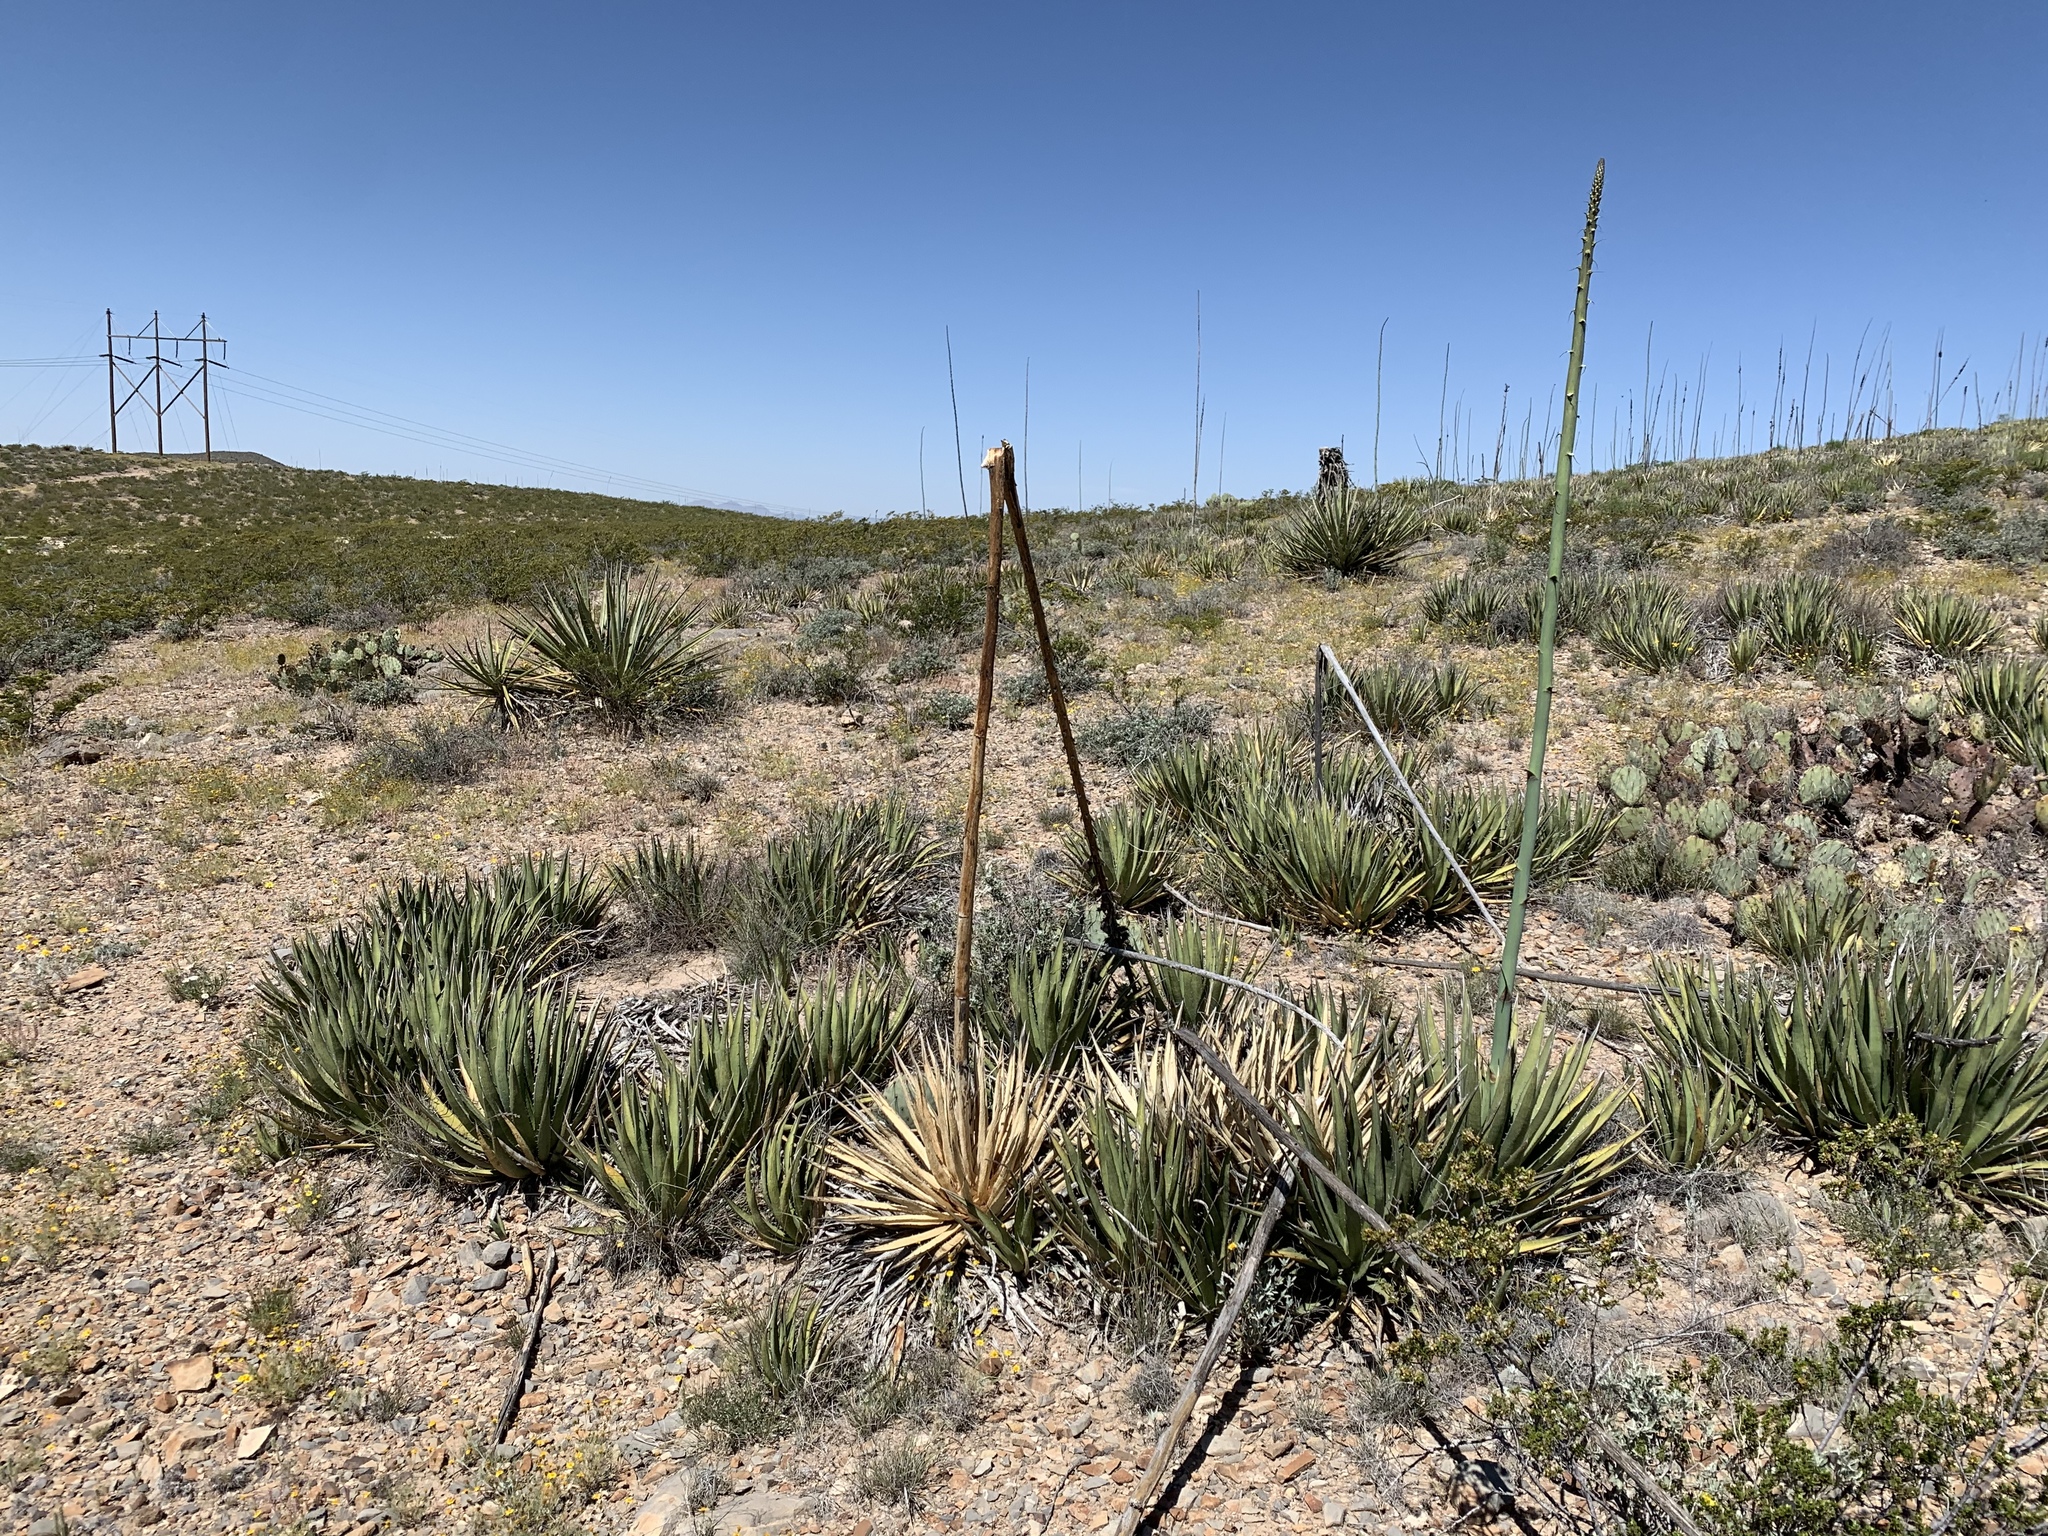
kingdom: Plantae
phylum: Tracheophyta
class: Liliopsida
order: Asparagales
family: Asparagaceae
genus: Agave
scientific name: Agave lechuguilla
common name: Lecheguilla agave
